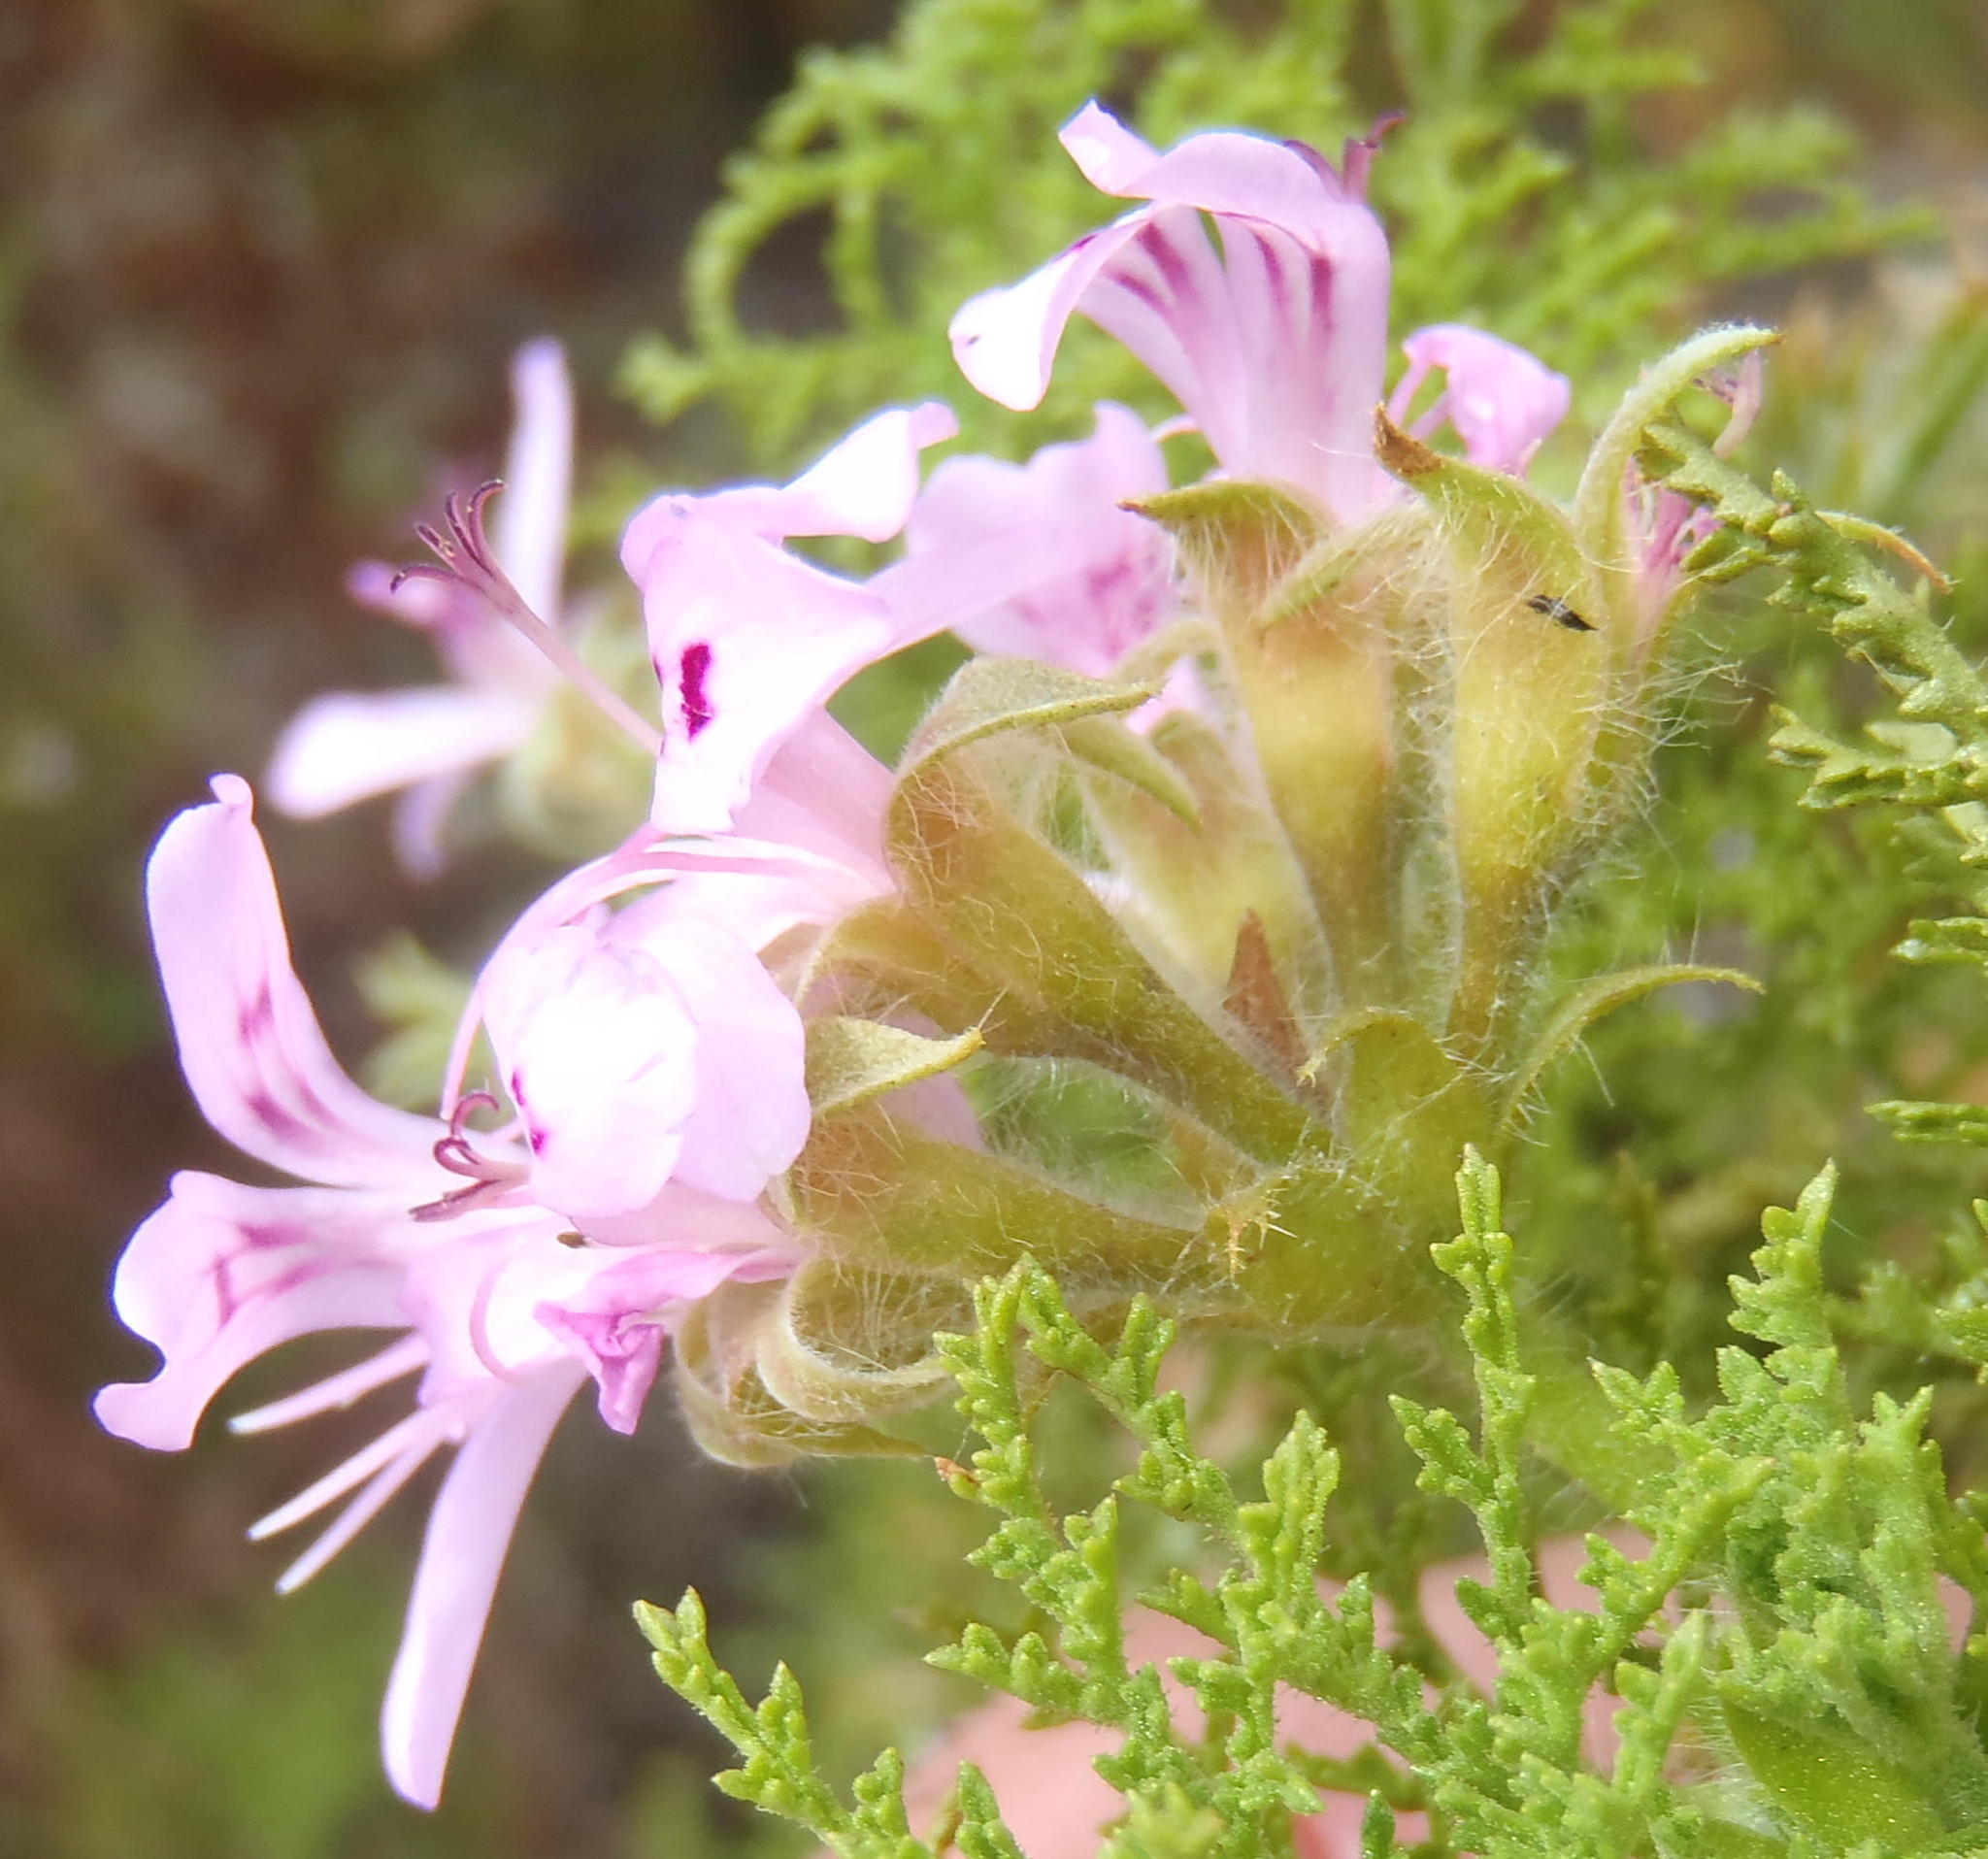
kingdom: Plantae
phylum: Tracheophyta
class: Magnoliopsida
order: Geraniales
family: Geraniaceae
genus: Pelargonium
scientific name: Pelargonium denticulatum
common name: Pine geranium
